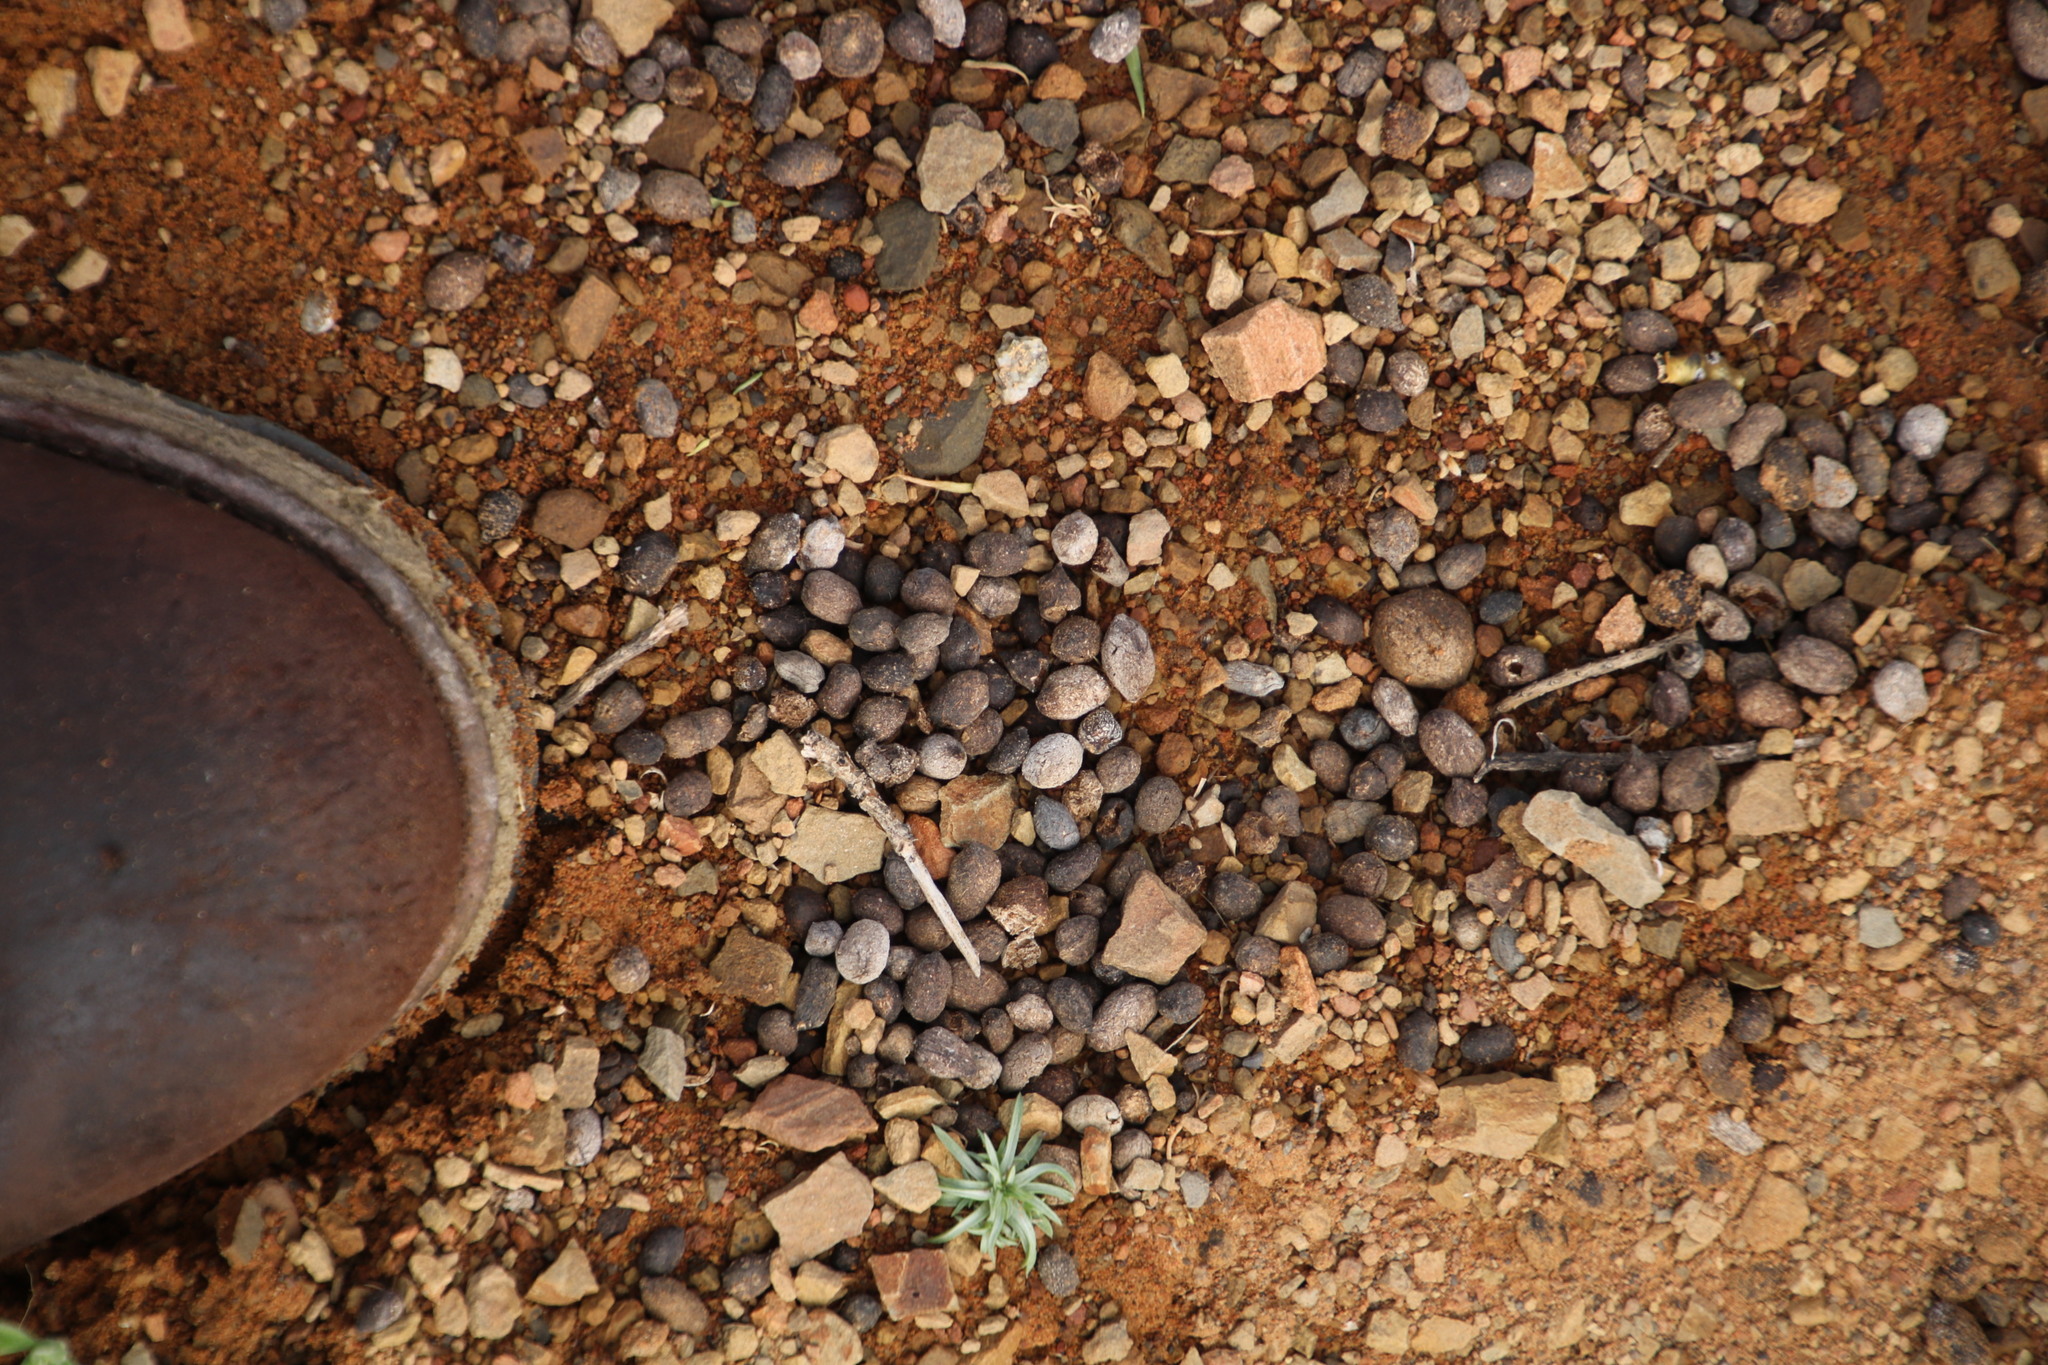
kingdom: Animalia
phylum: Chordata
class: Mammalia
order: Artiodactyla
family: Bovidae
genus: Sylvicapra
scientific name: Sylvicapra grimmia
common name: Bush duiker
